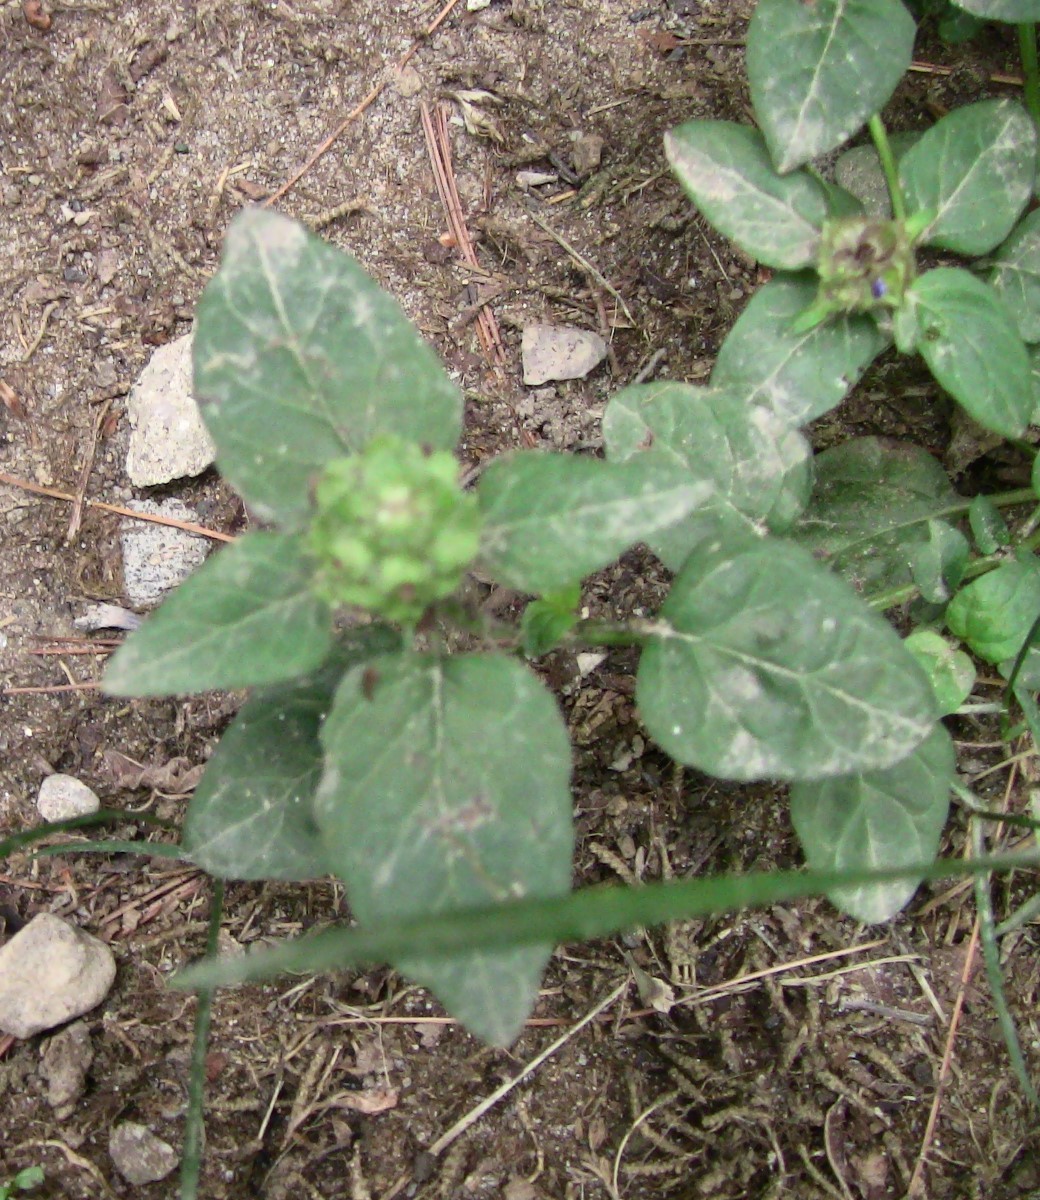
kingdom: Plantae
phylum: Tracheophyta
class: Magnoliopsida
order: Lamiales
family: Lamiaceae
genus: Prunella
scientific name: Prunella vulgaris
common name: Heal-all
